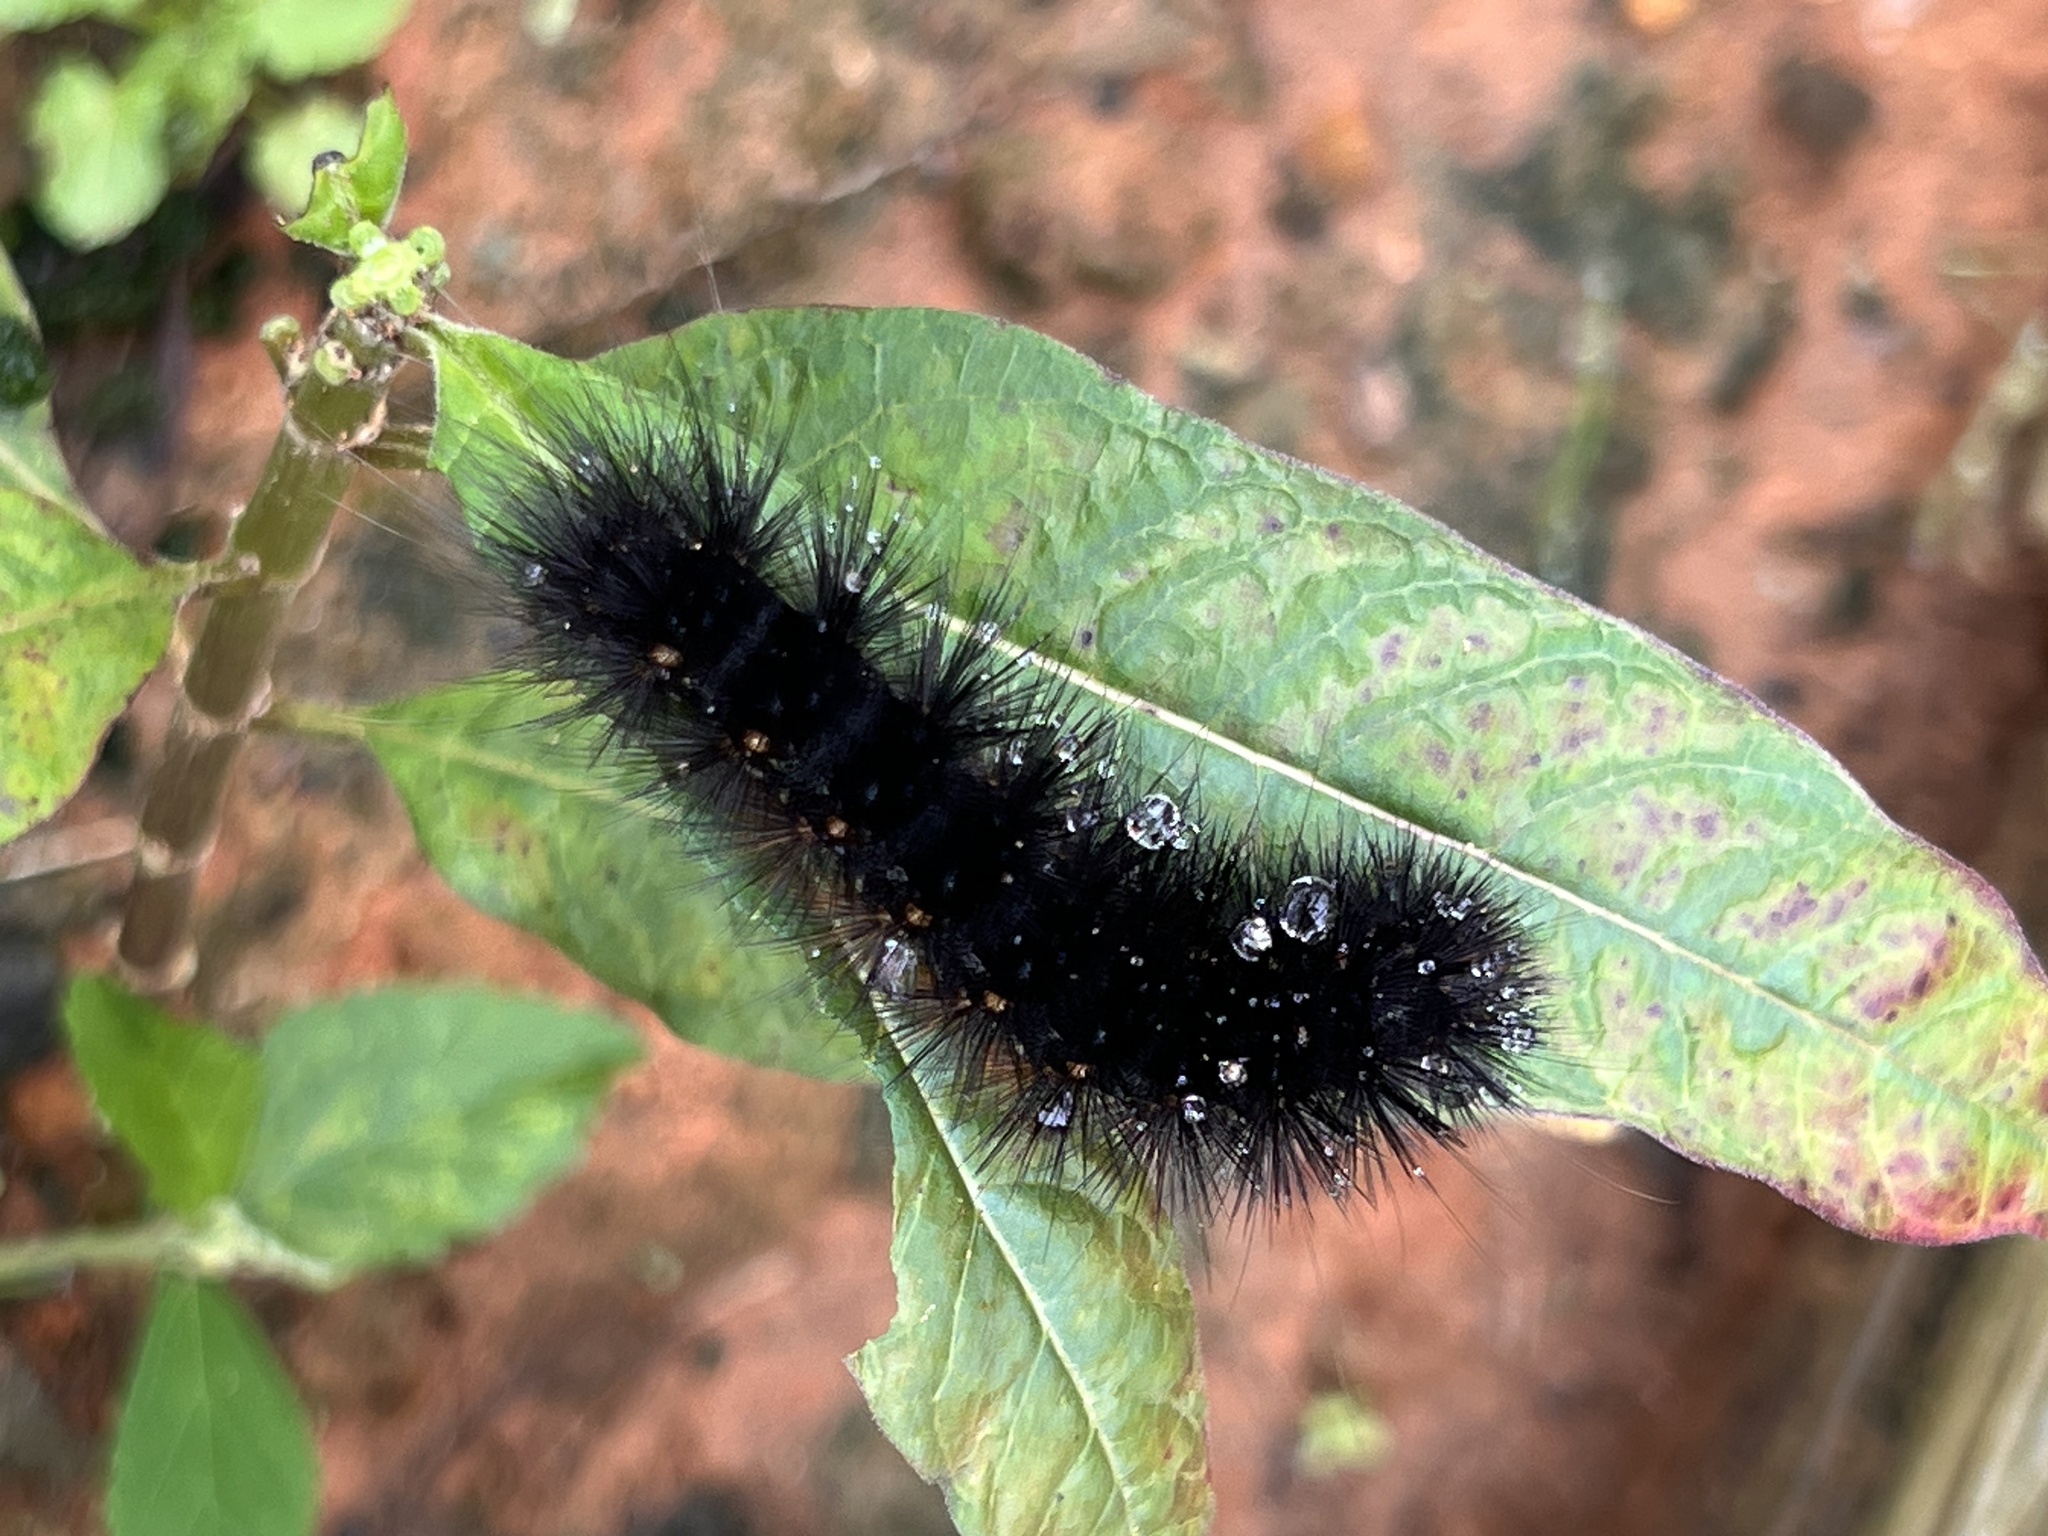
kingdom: Animalia
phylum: Arthropoda
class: Insecta
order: Lepidoptera
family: Erebidae
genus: Estigmene
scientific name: Estigmene acrea
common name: Salt marsh moth
